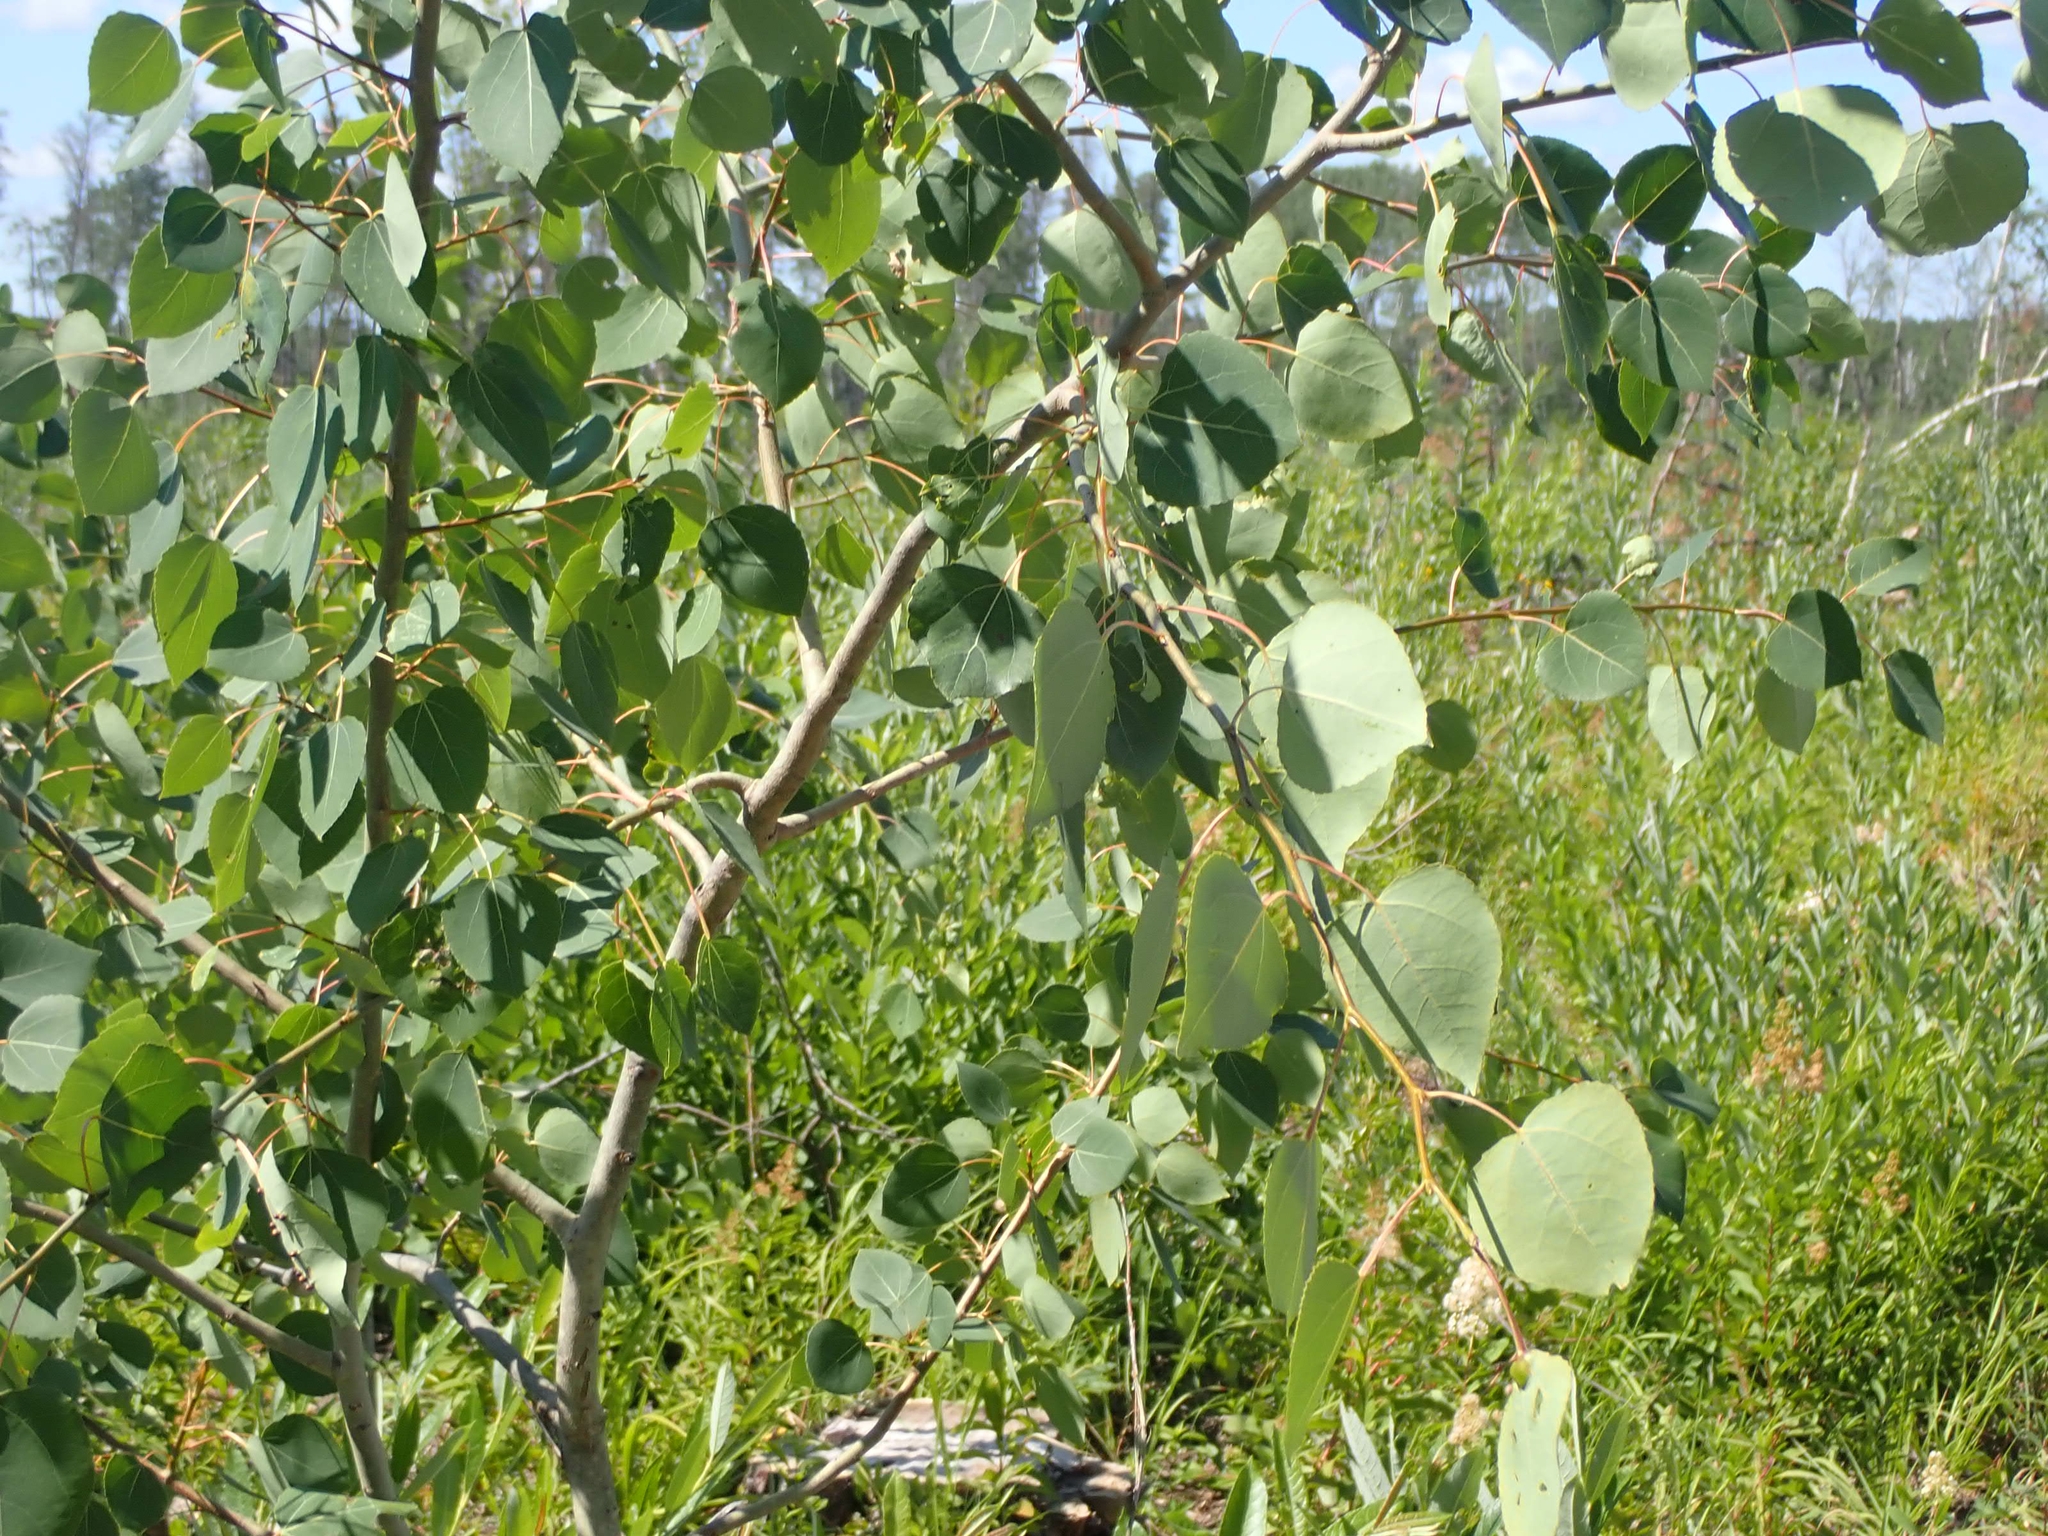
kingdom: Plantae
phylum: Tracheophyta
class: Magnoliopsida
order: Malpighiales
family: Salicaceae
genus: Populus
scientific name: Populus tremuloides
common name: Quaking aspen
